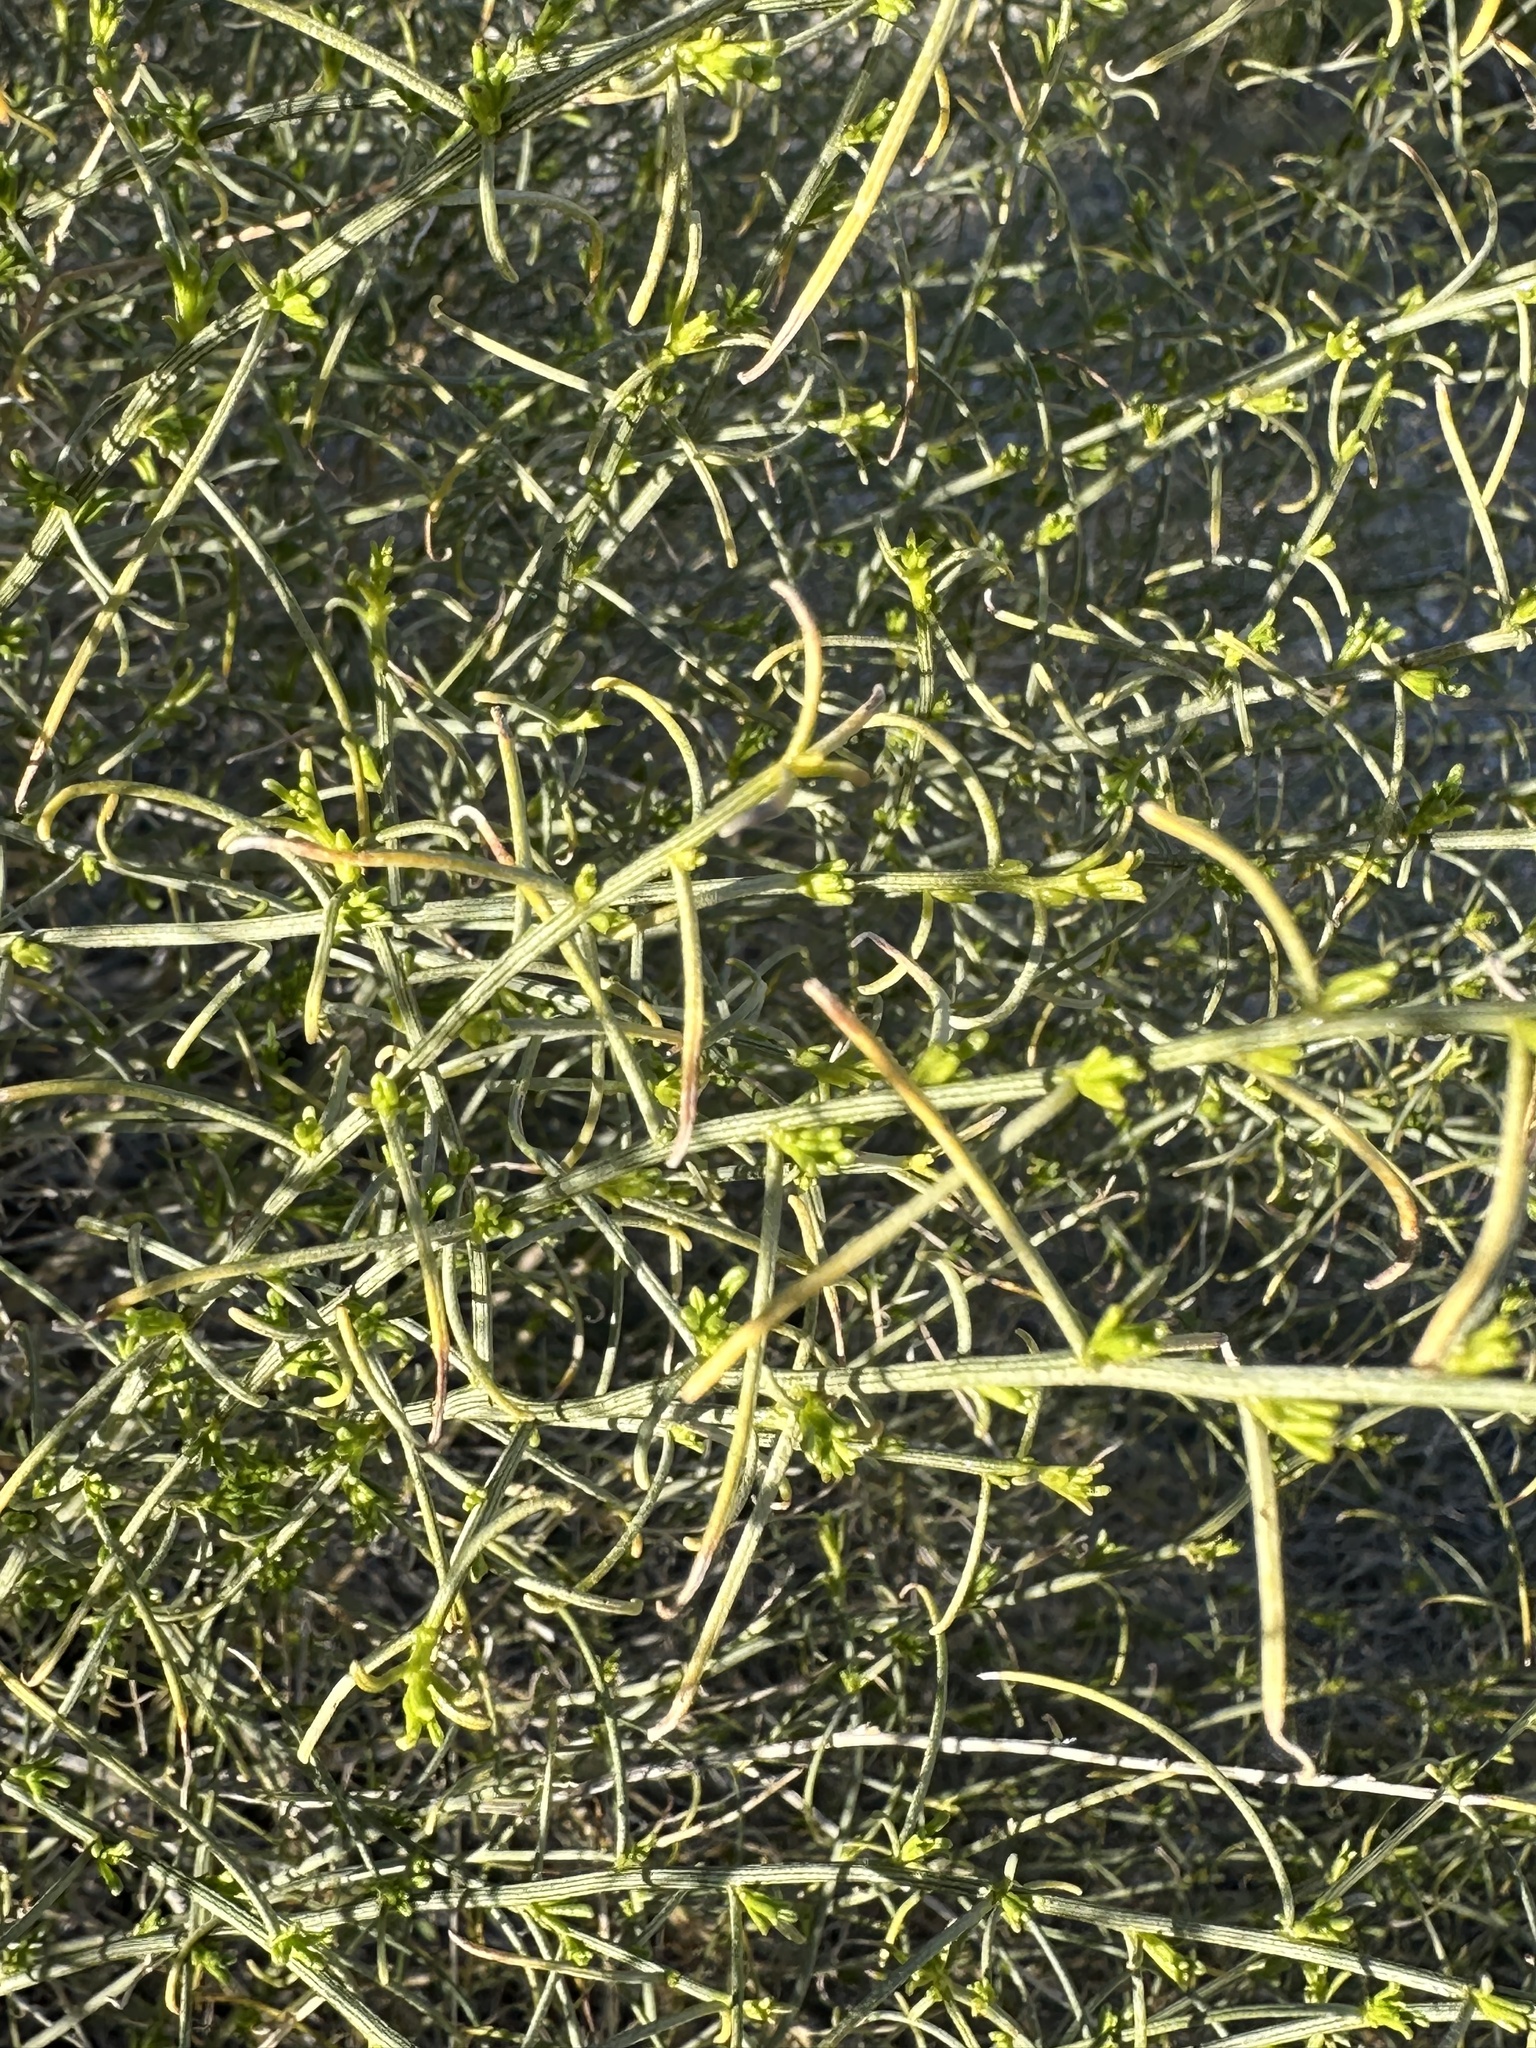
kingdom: Plantae
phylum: Tracheophyta
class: Magnoliopsida
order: Asterales
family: Asteraceae
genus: Ambrosia
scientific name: Ambrosia salsola
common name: Burrobrush
